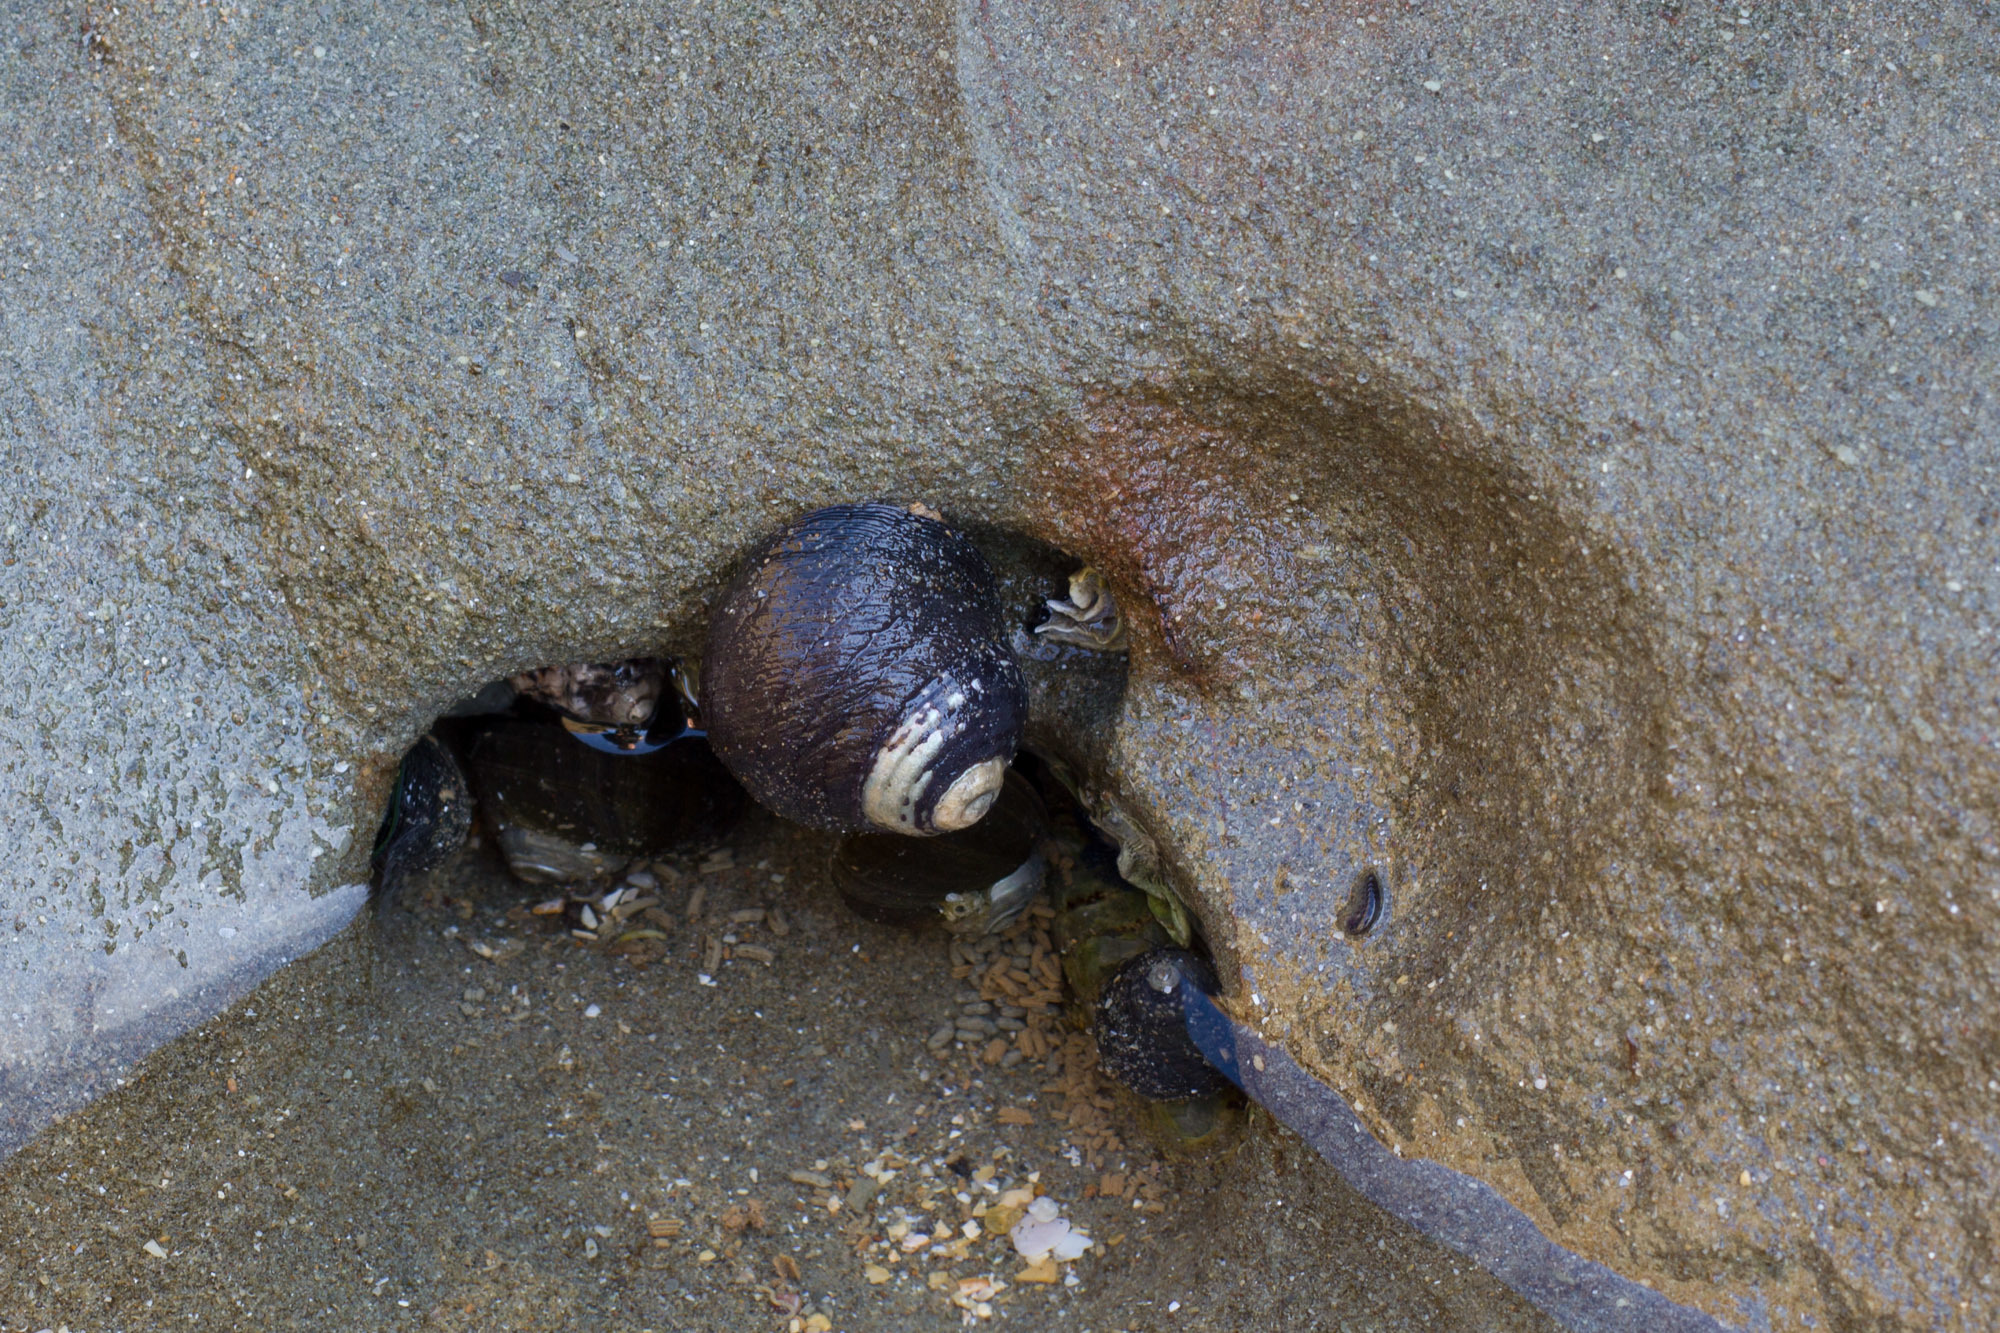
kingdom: Animalia
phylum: Mollusca
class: Gastropoda
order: Trochida
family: Trochidae
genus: Diloma
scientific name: Diloma aethiops
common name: Scorched monodont
